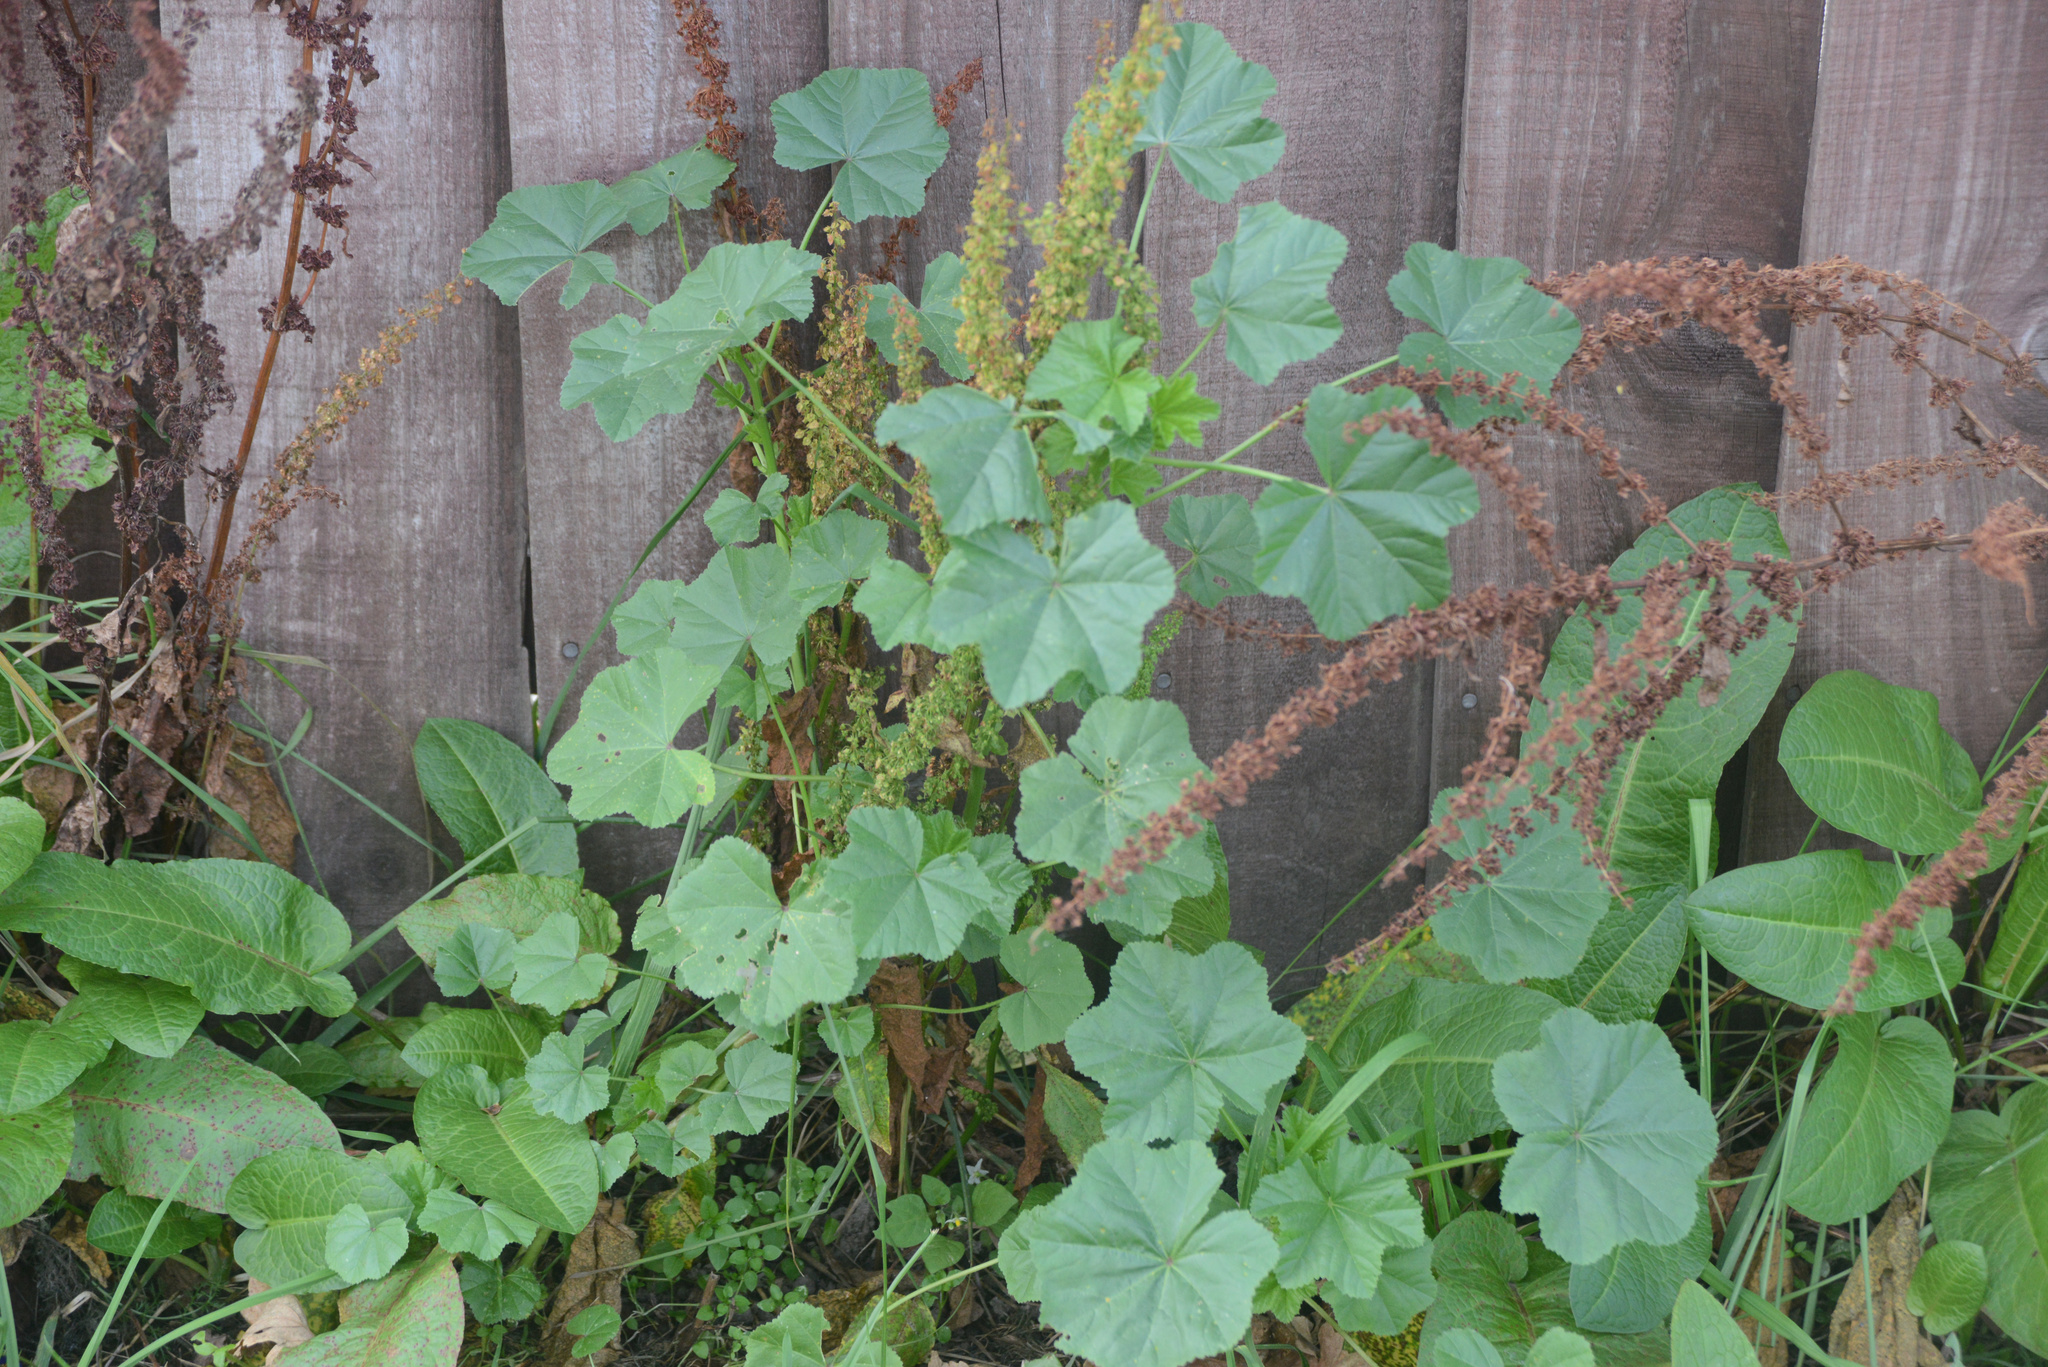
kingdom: Plantae
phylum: Tracheophyta
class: Magnoliopsida
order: Malvales
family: Malvaceae
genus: Malva
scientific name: Malva sylvestris
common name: Common mallow
